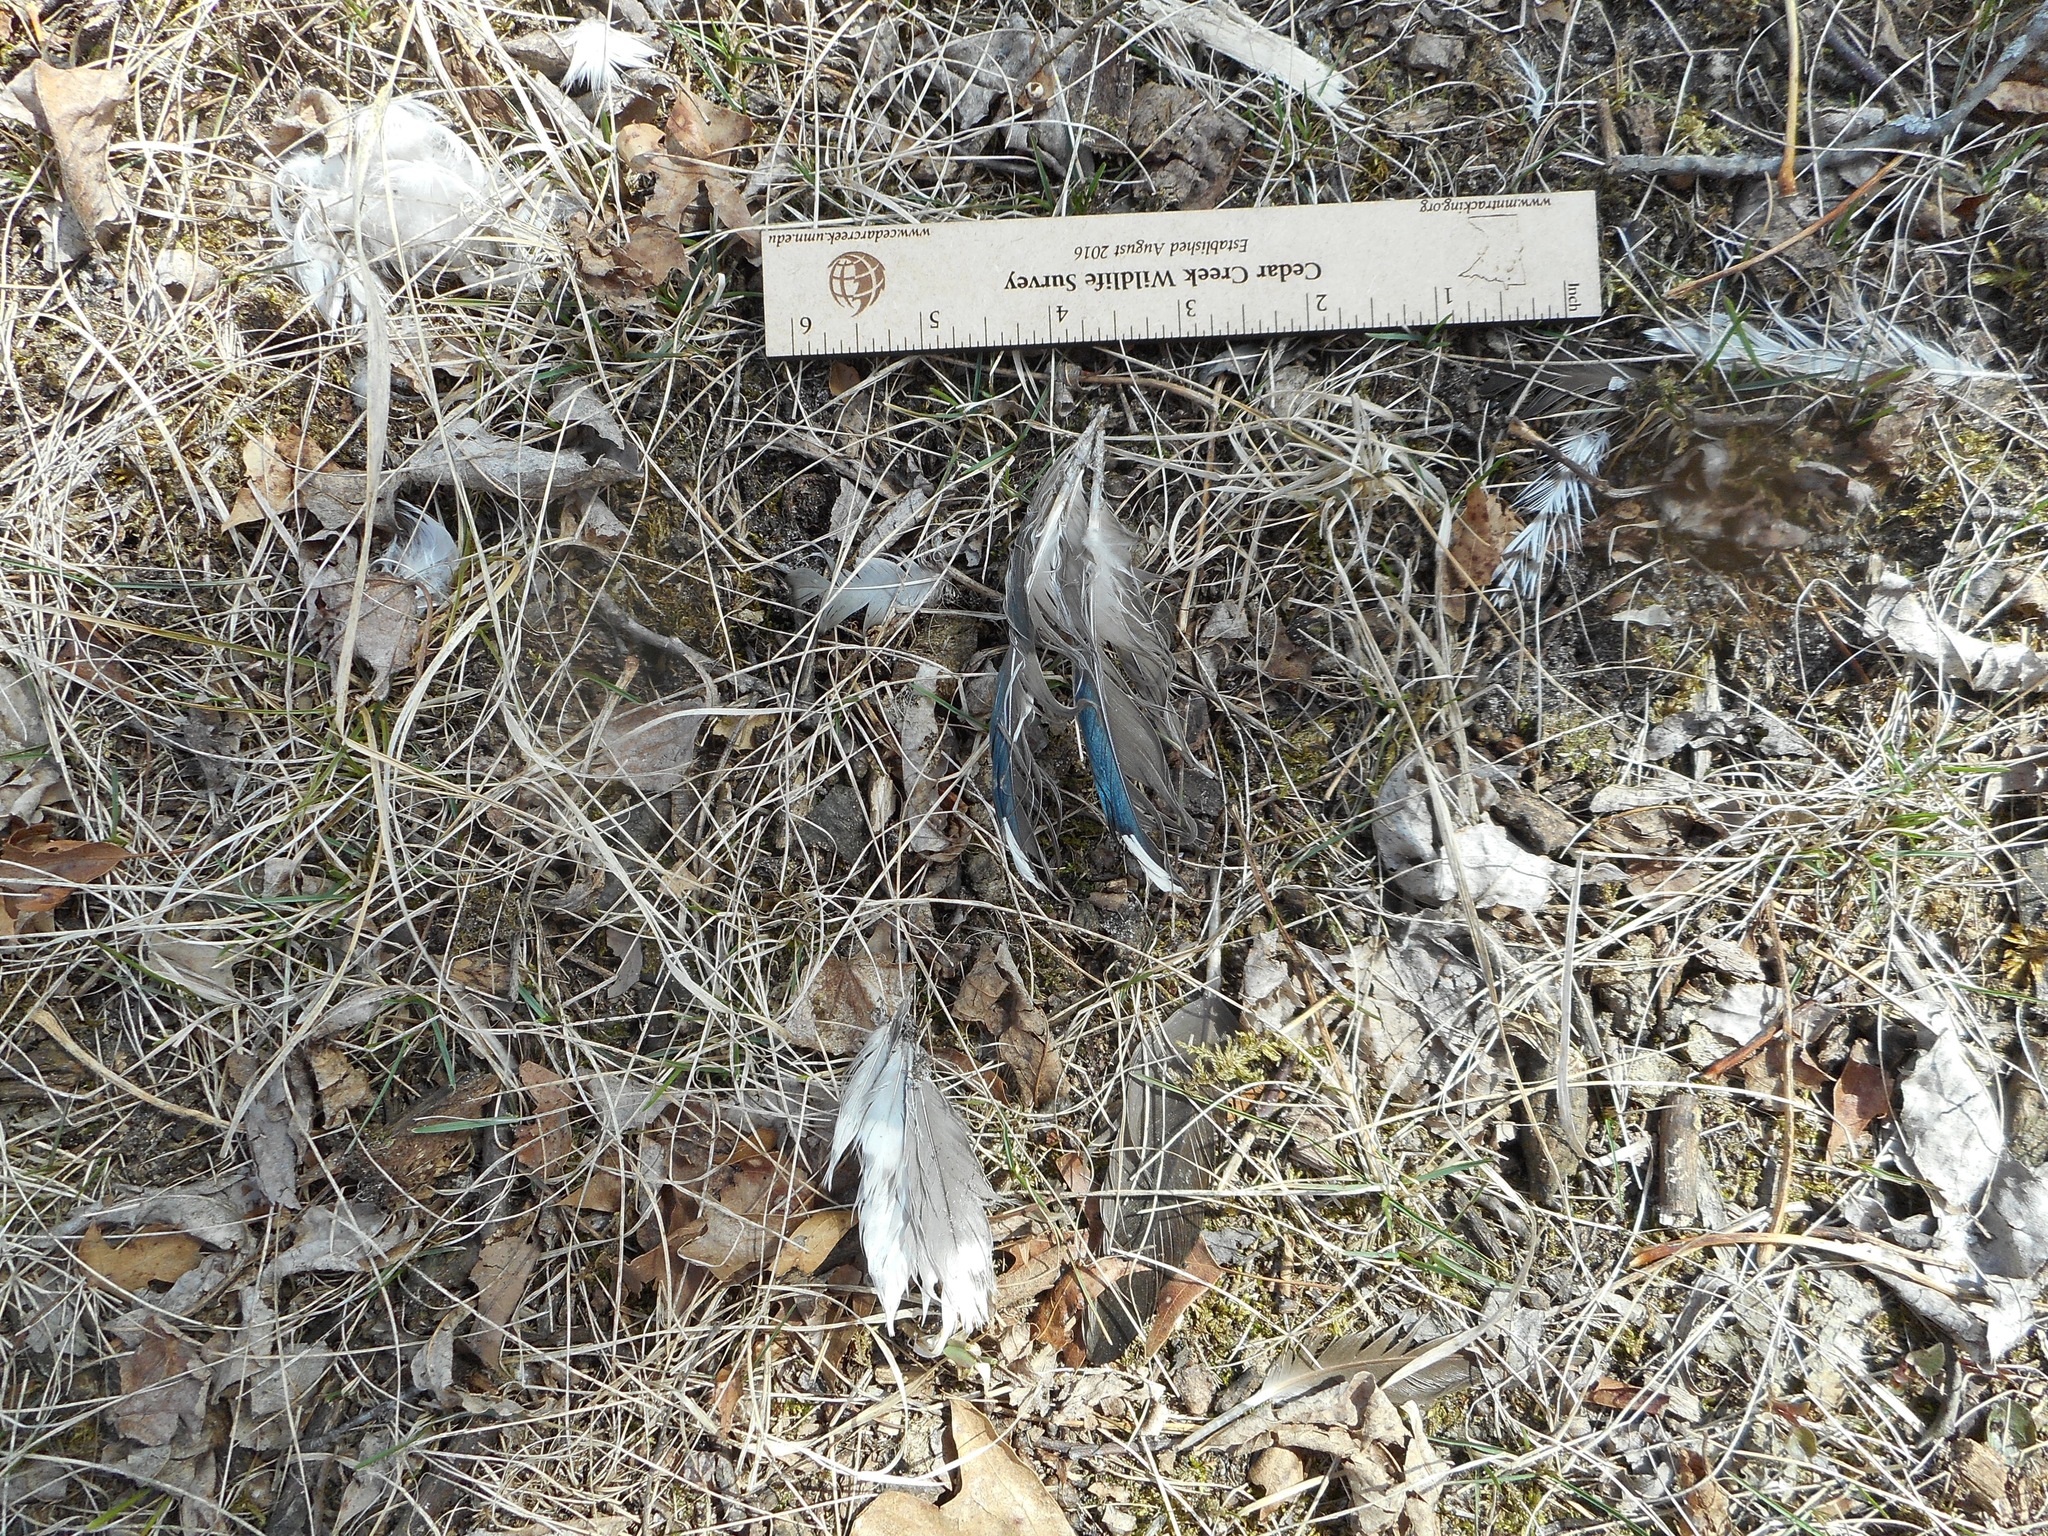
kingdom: Animalia
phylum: Chordata
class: Aves
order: Anseriformes
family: Anatidae
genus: Aix
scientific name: Aix sponsa
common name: Wood duck
